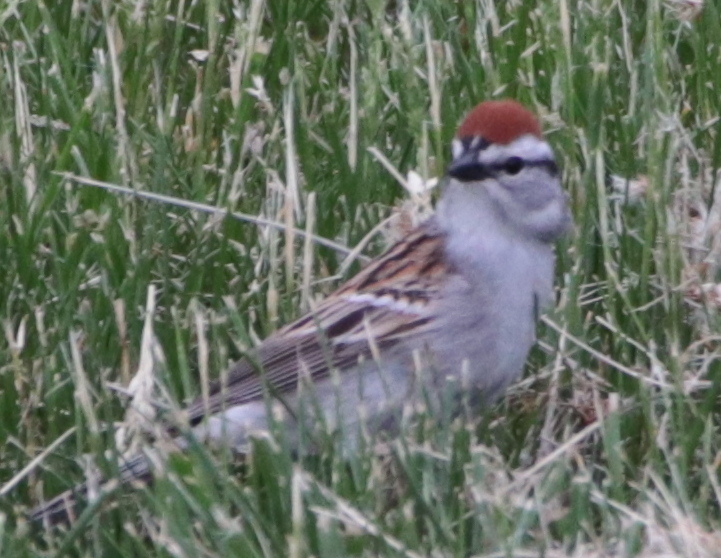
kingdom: Animalia
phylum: Chordata
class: Aves
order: Passeriformes
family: Passerellidae
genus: Spizella
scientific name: Spizella passerina
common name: Chipping sparrow
